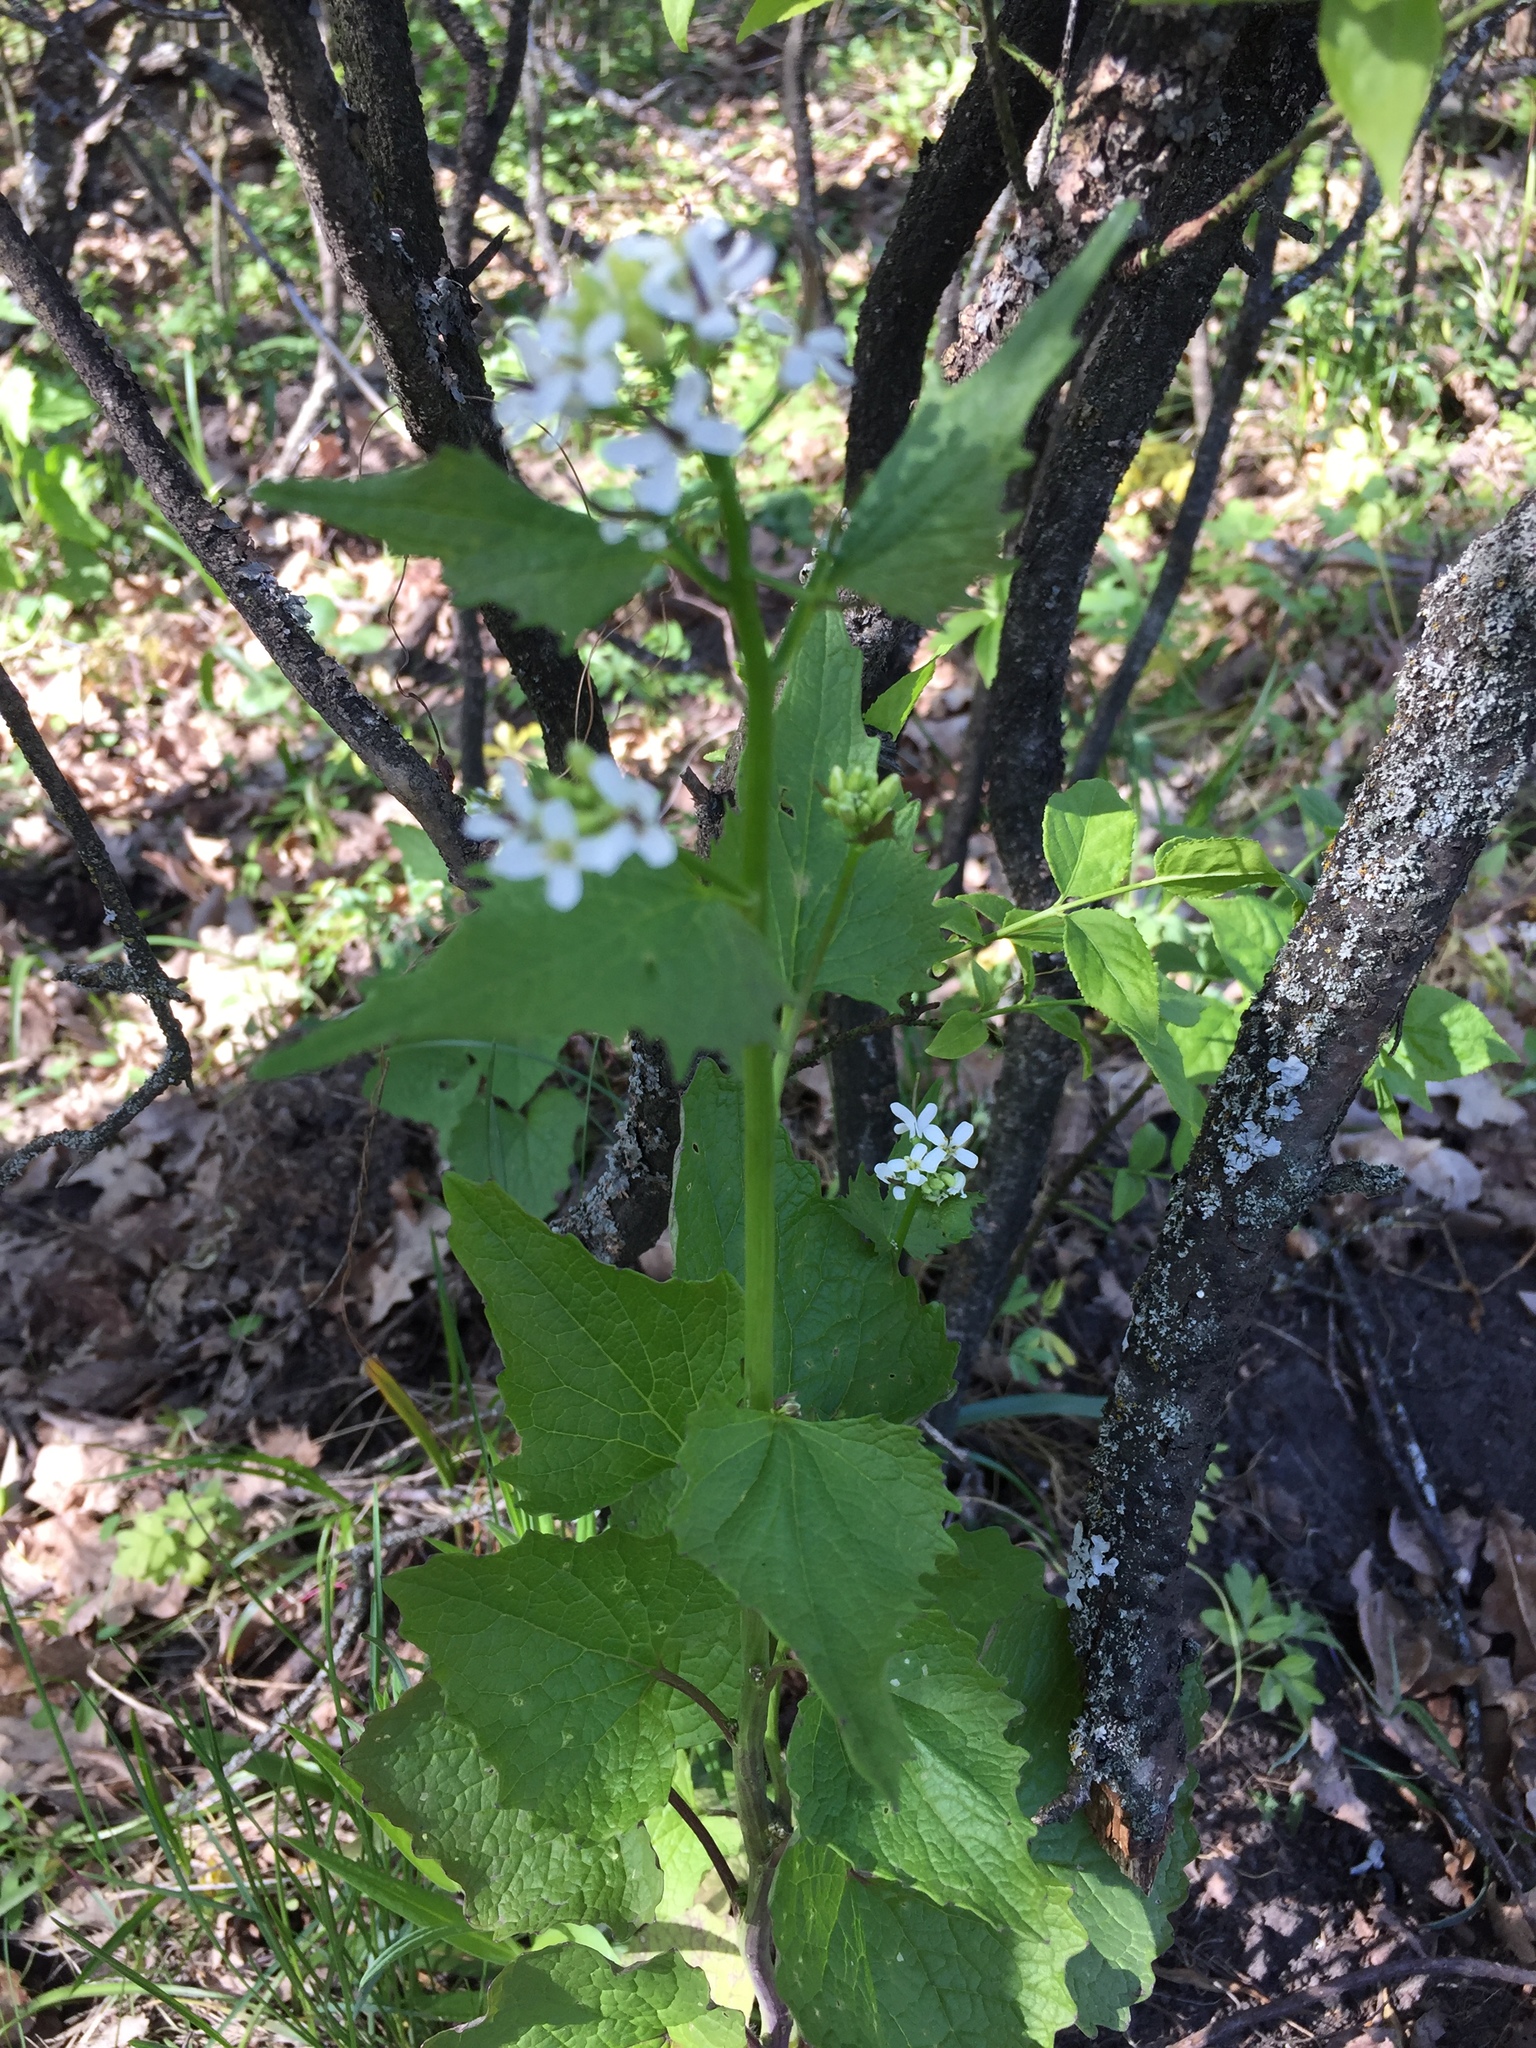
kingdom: Plantae
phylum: Tracheophyta
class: Magnoliopsida
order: Brassicales
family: Brassicaceae
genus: Alliaria
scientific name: Alliaria petiolata
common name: Garlic mustard
